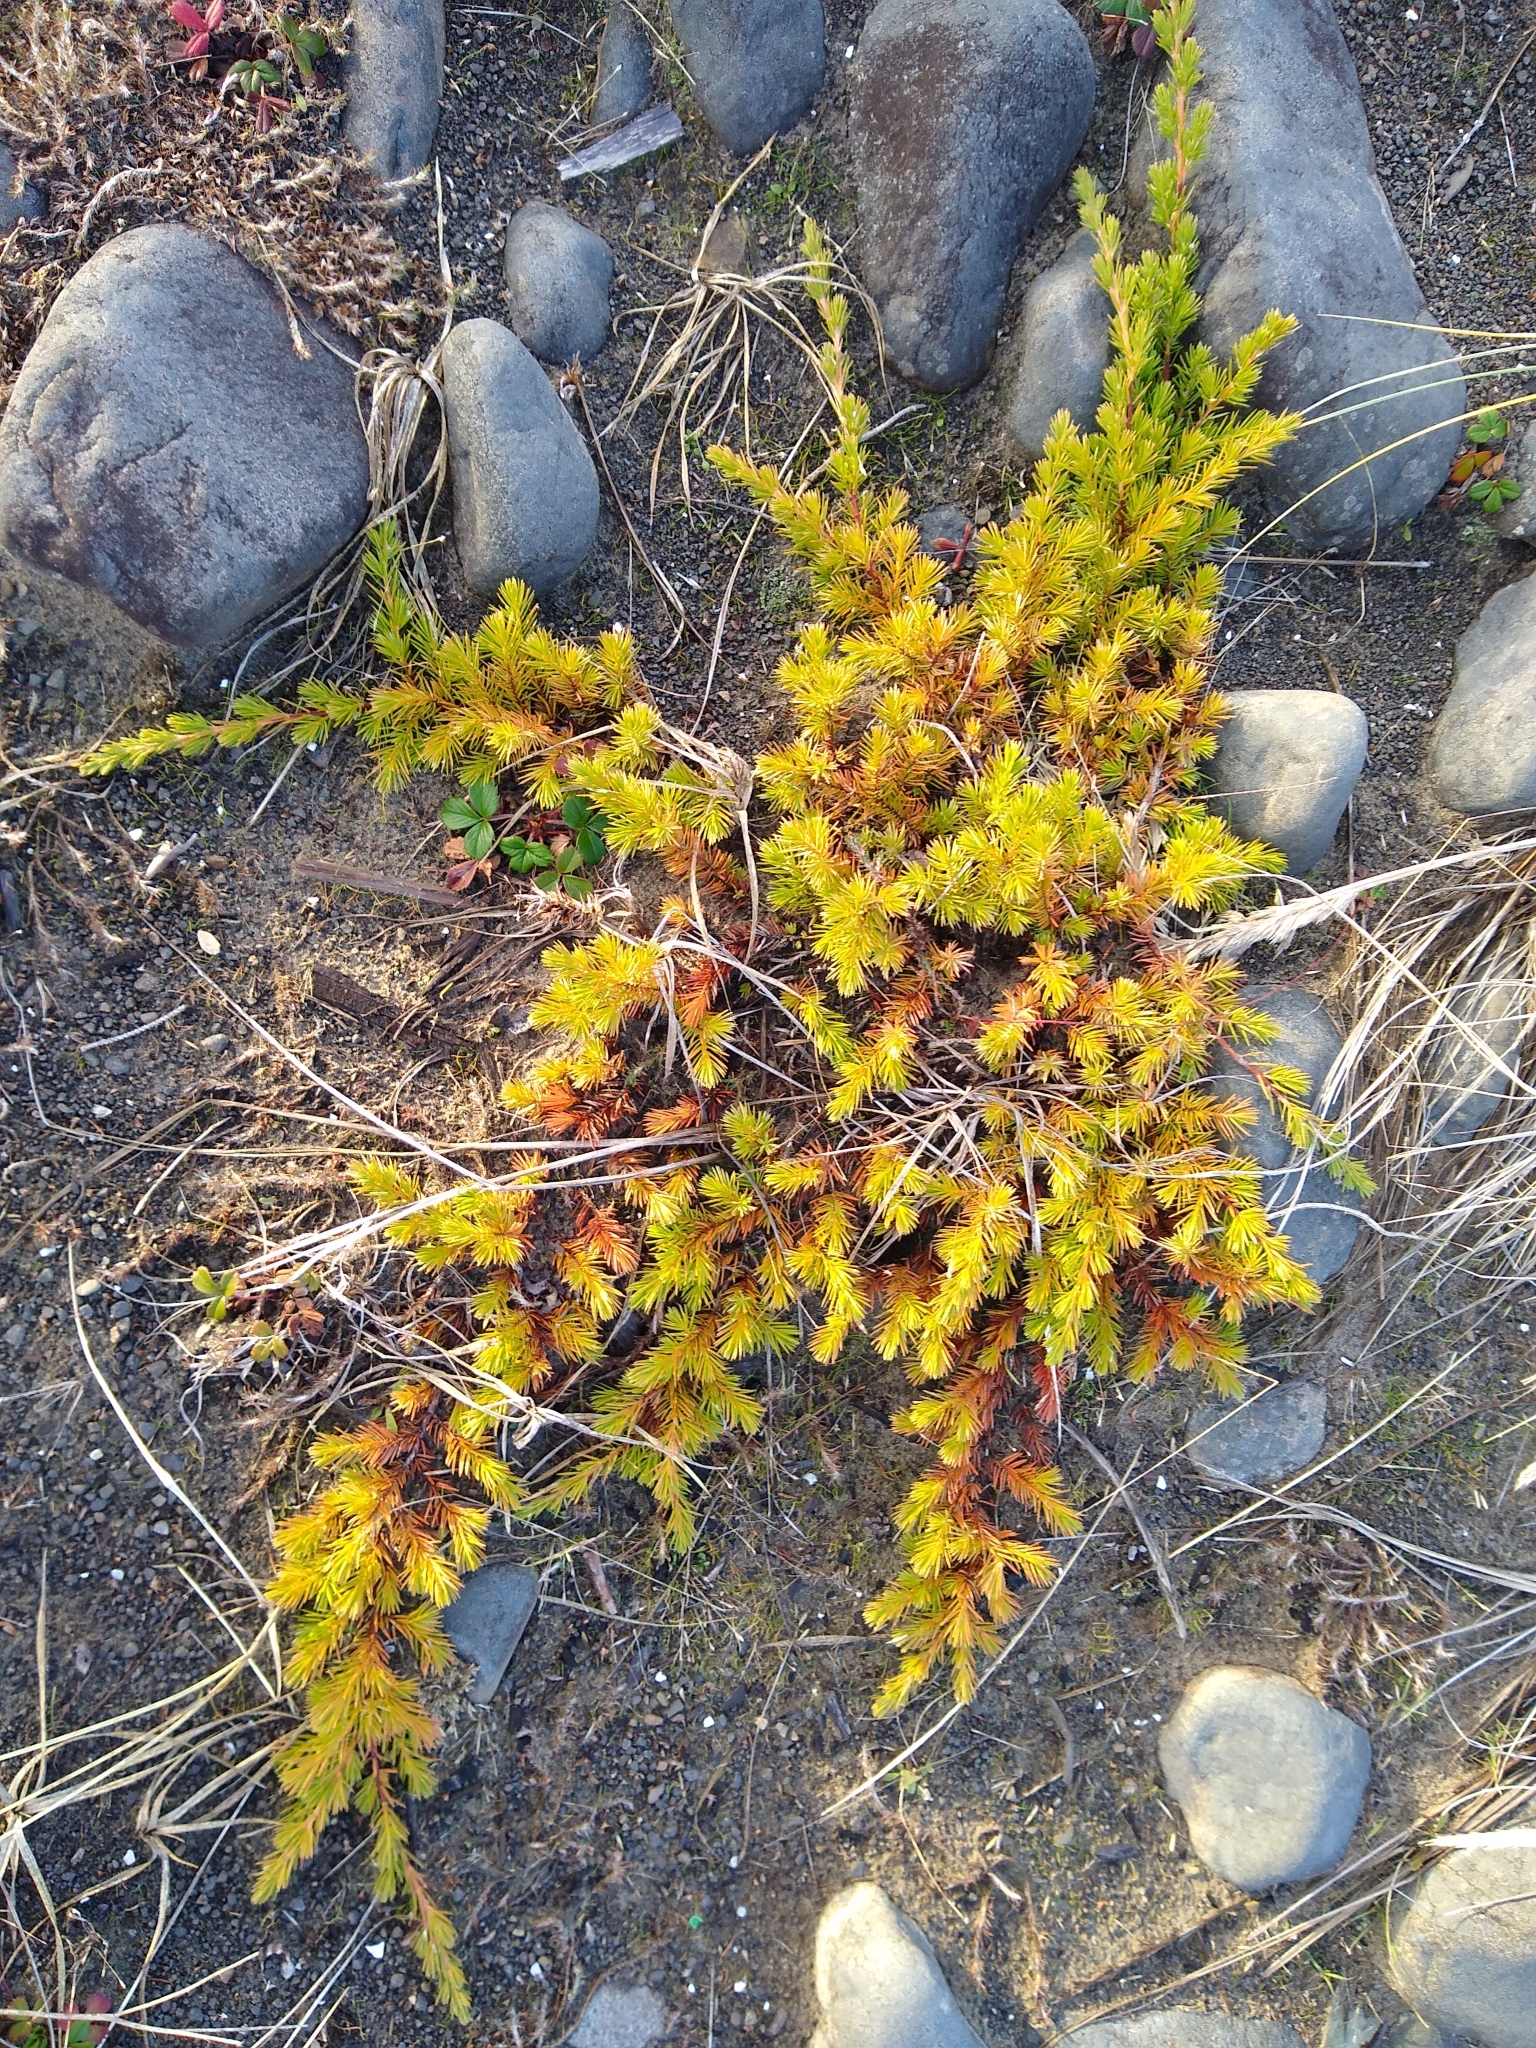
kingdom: Plantae
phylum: Tracheophyta
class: Pinopsida
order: Pinales
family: Cupressaceae
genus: Juniperus
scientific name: Juniperus rigida
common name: Needle juniper
